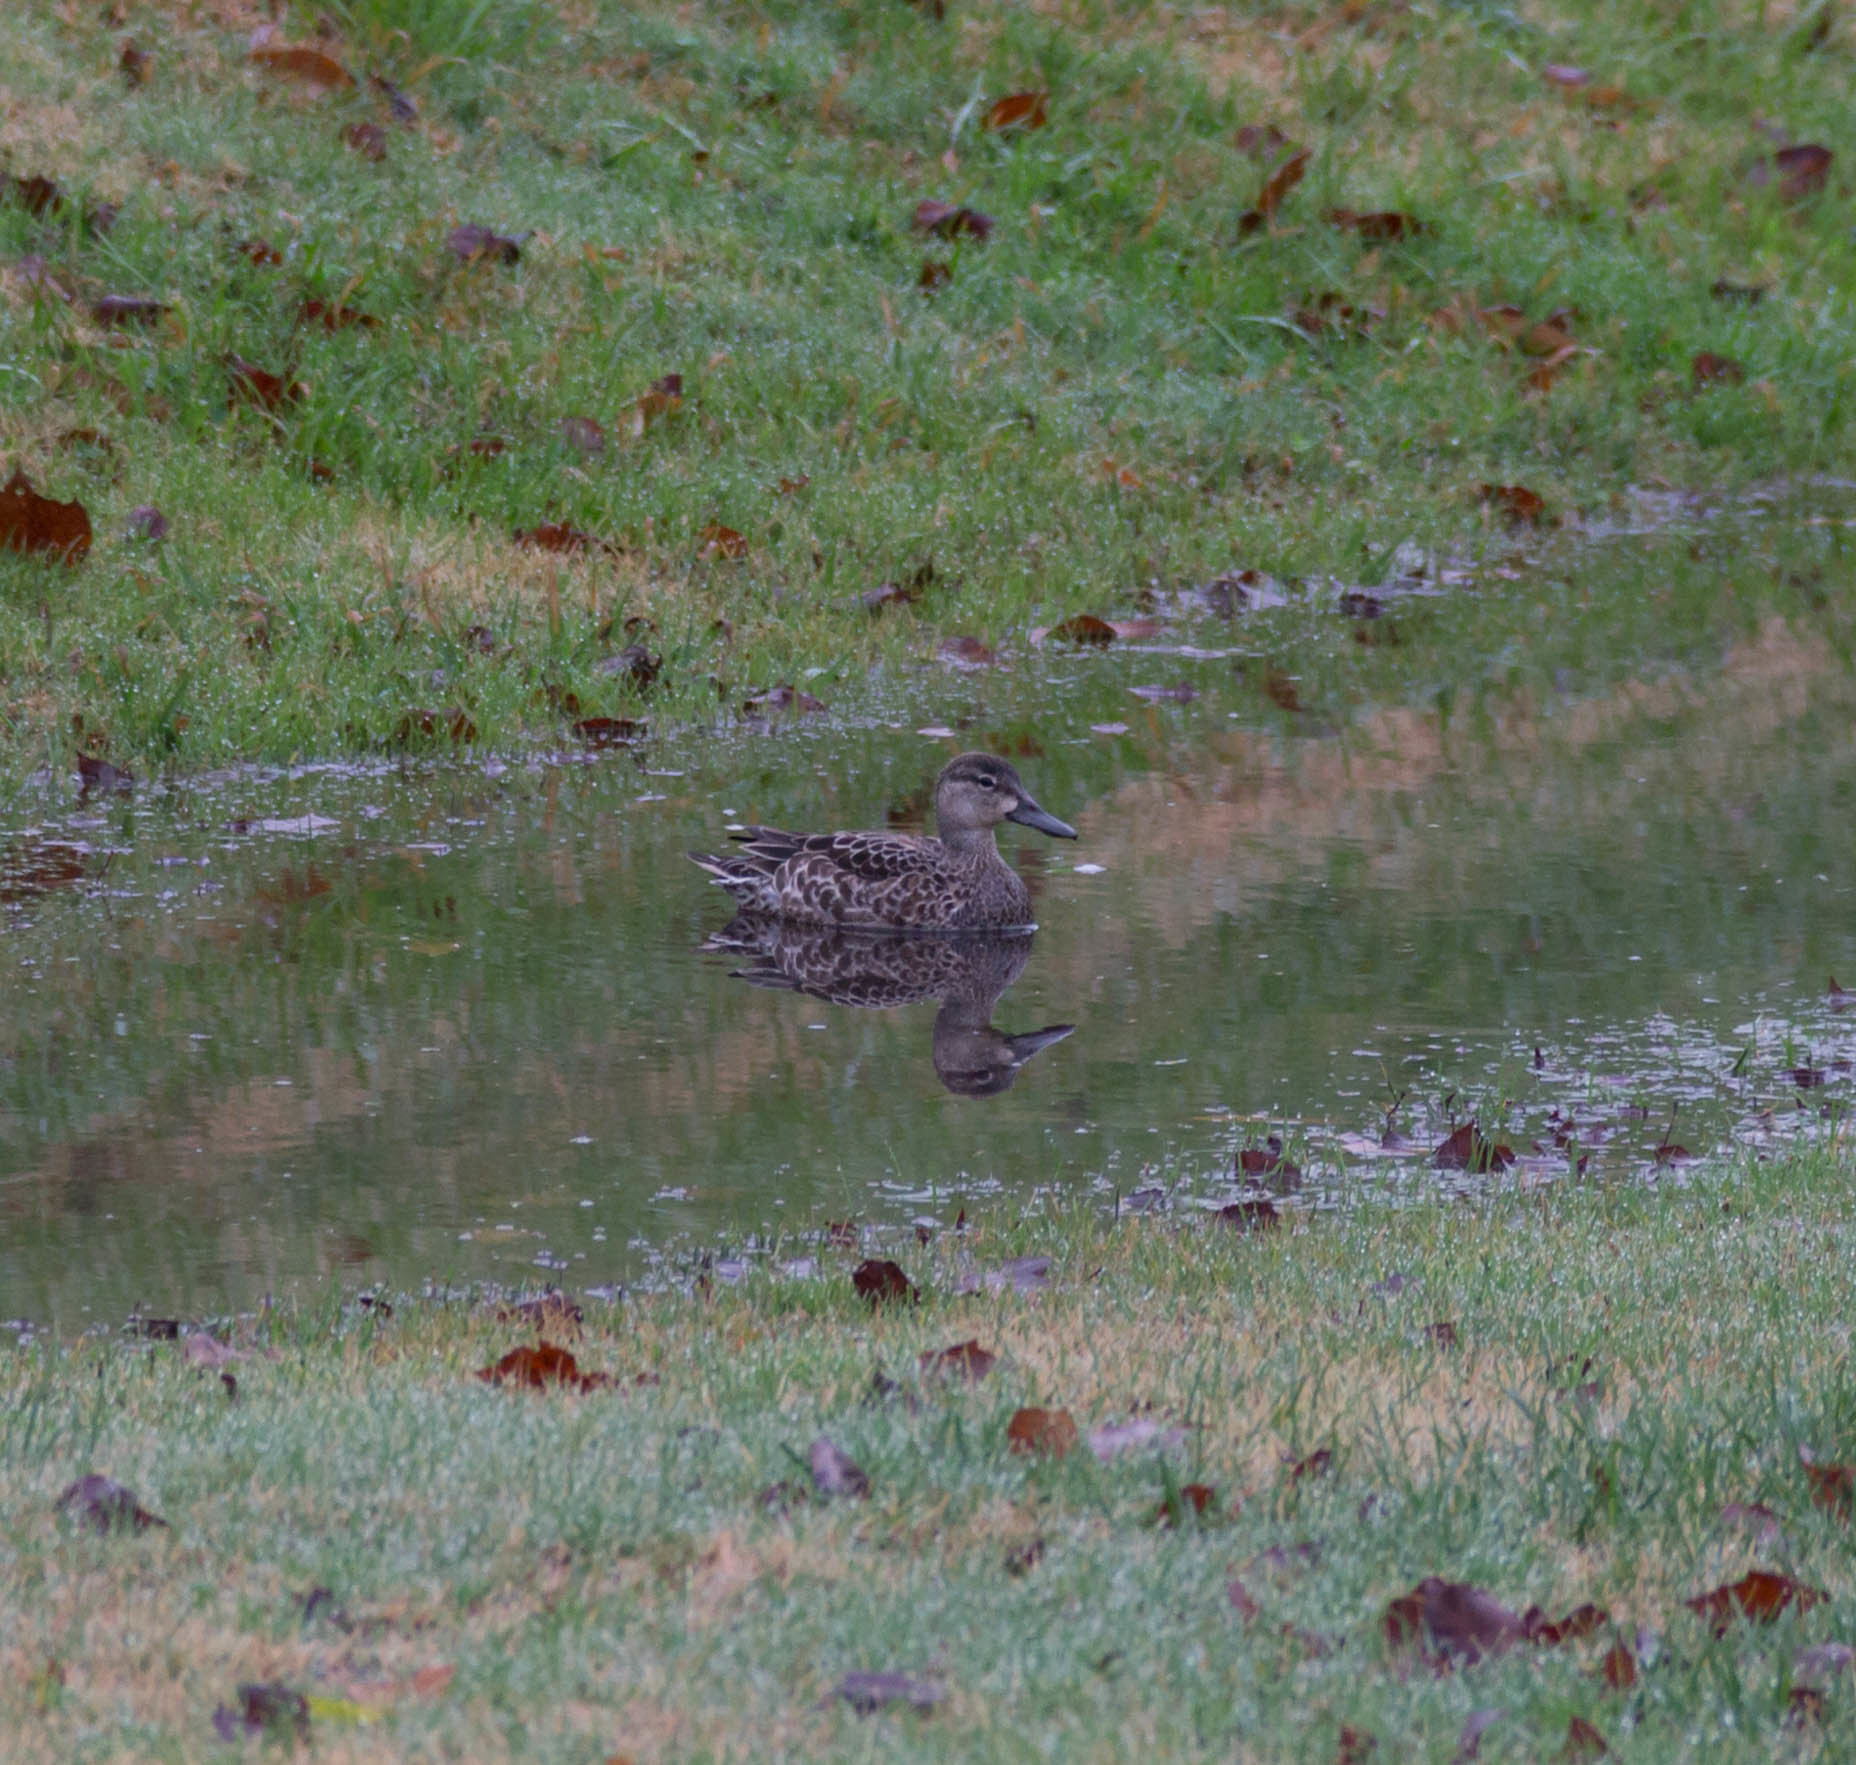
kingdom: Animalia
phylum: Chordata
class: Aves
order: Anseriformes
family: Anatidae
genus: Spatula
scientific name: Spatula discors
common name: Blue-winged teal
